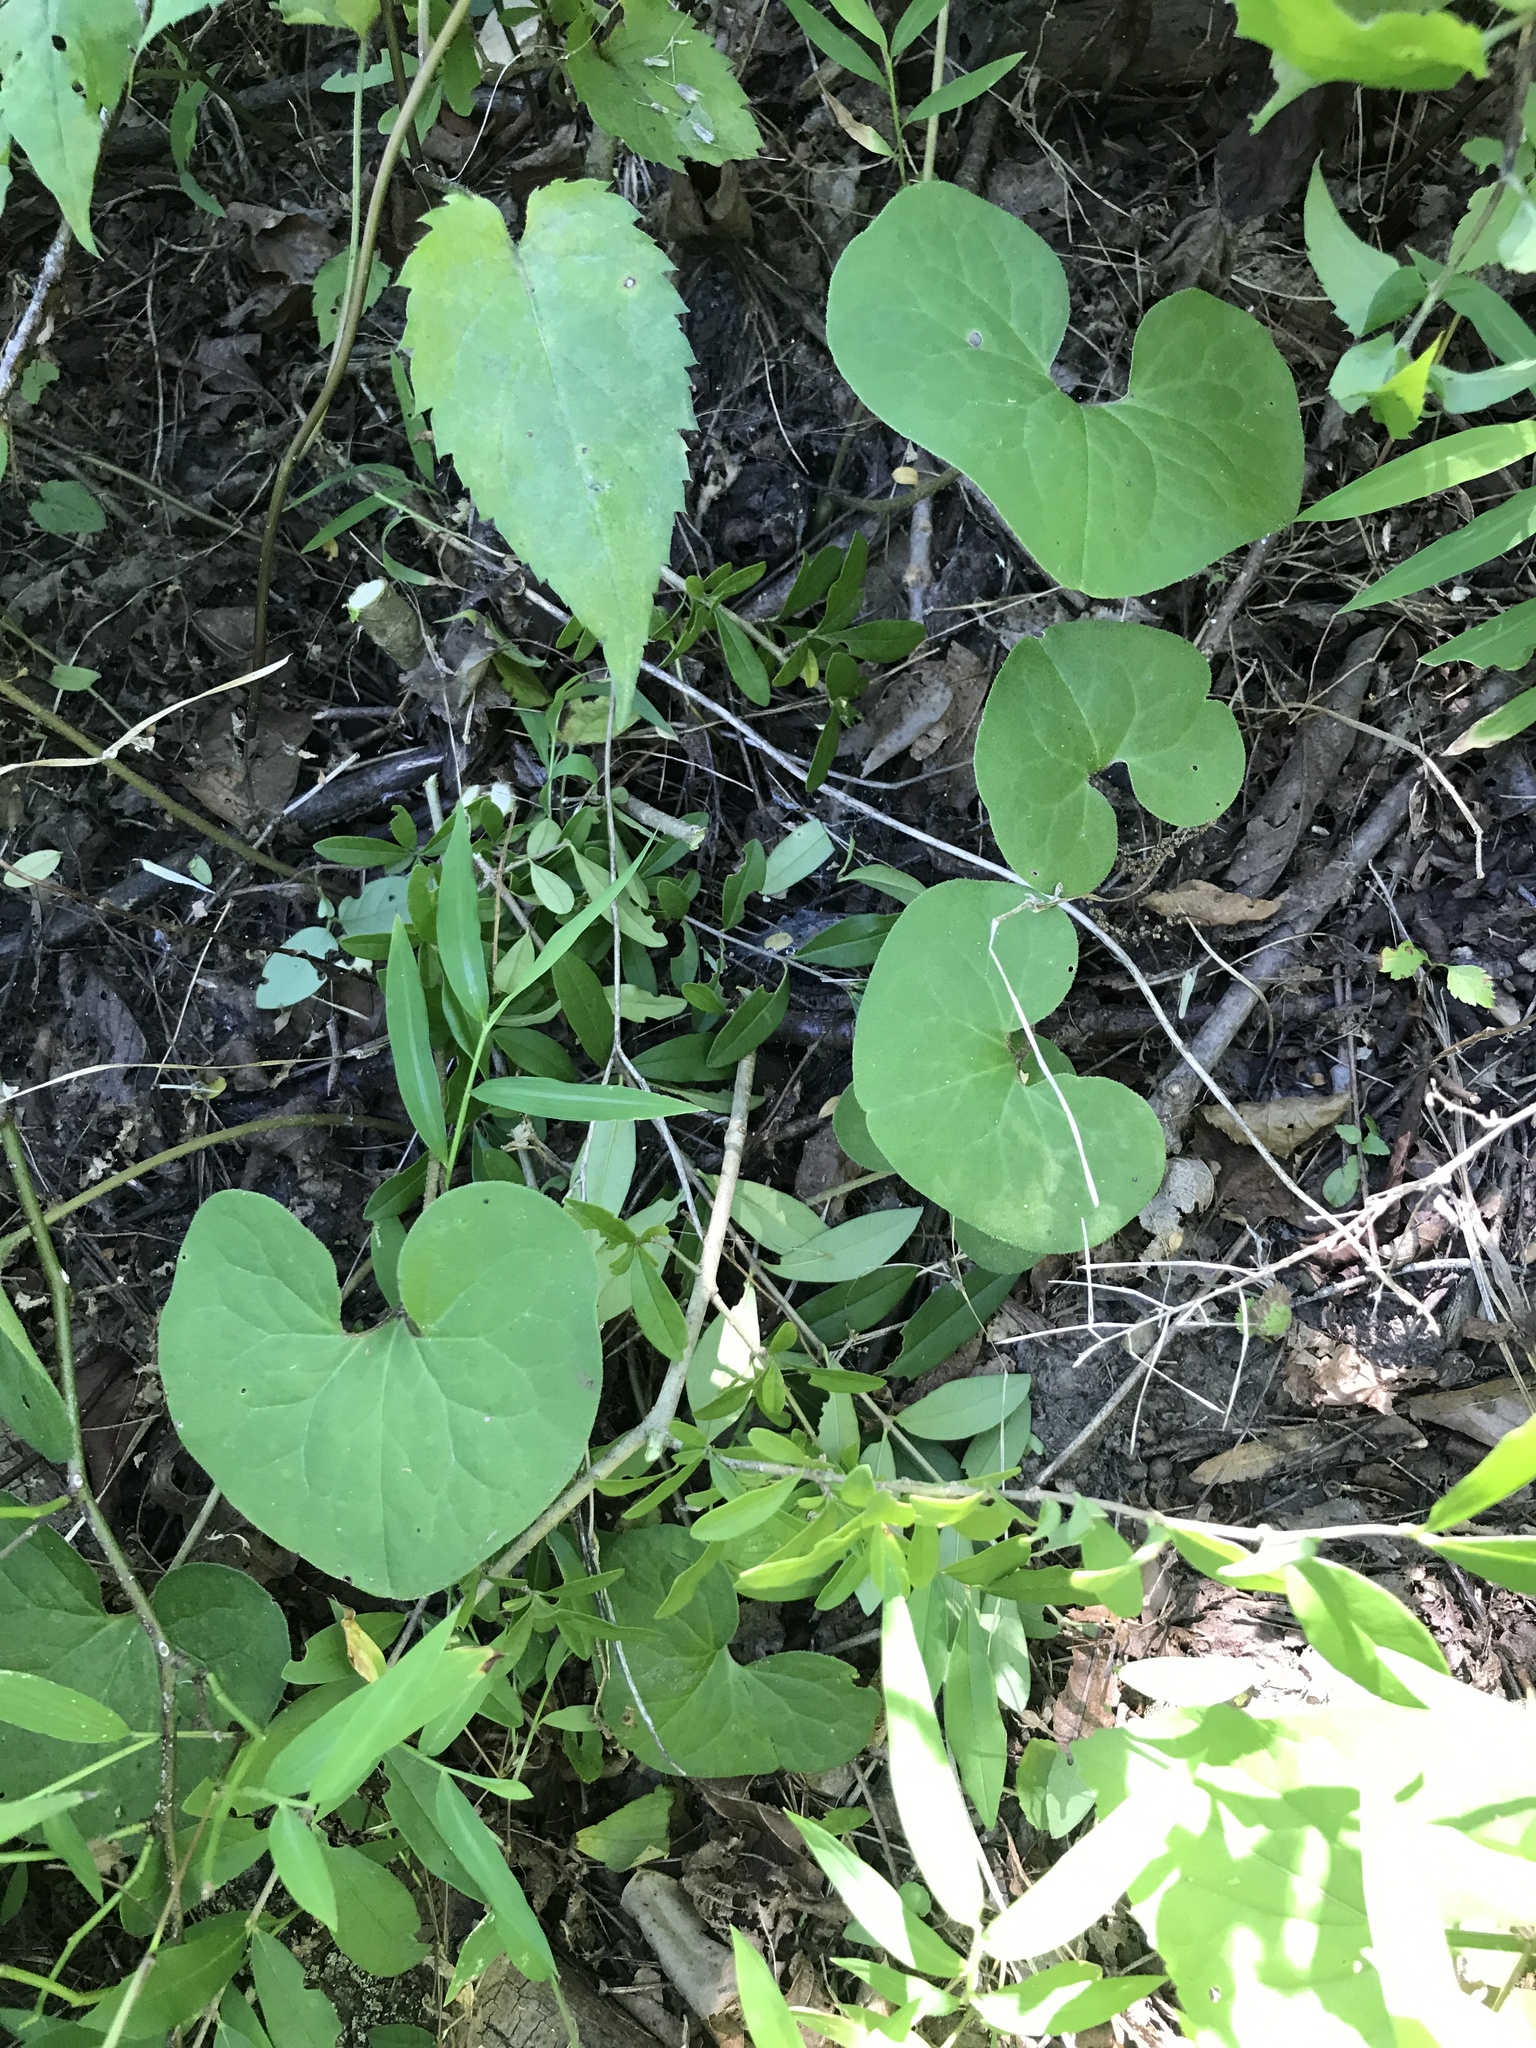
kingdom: Plantae
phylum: Tracheophyta
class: Magnoliopsida
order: Piperales
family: Aristolochiaceae
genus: Asarum
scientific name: Asarum canadense
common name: Wild ginger
